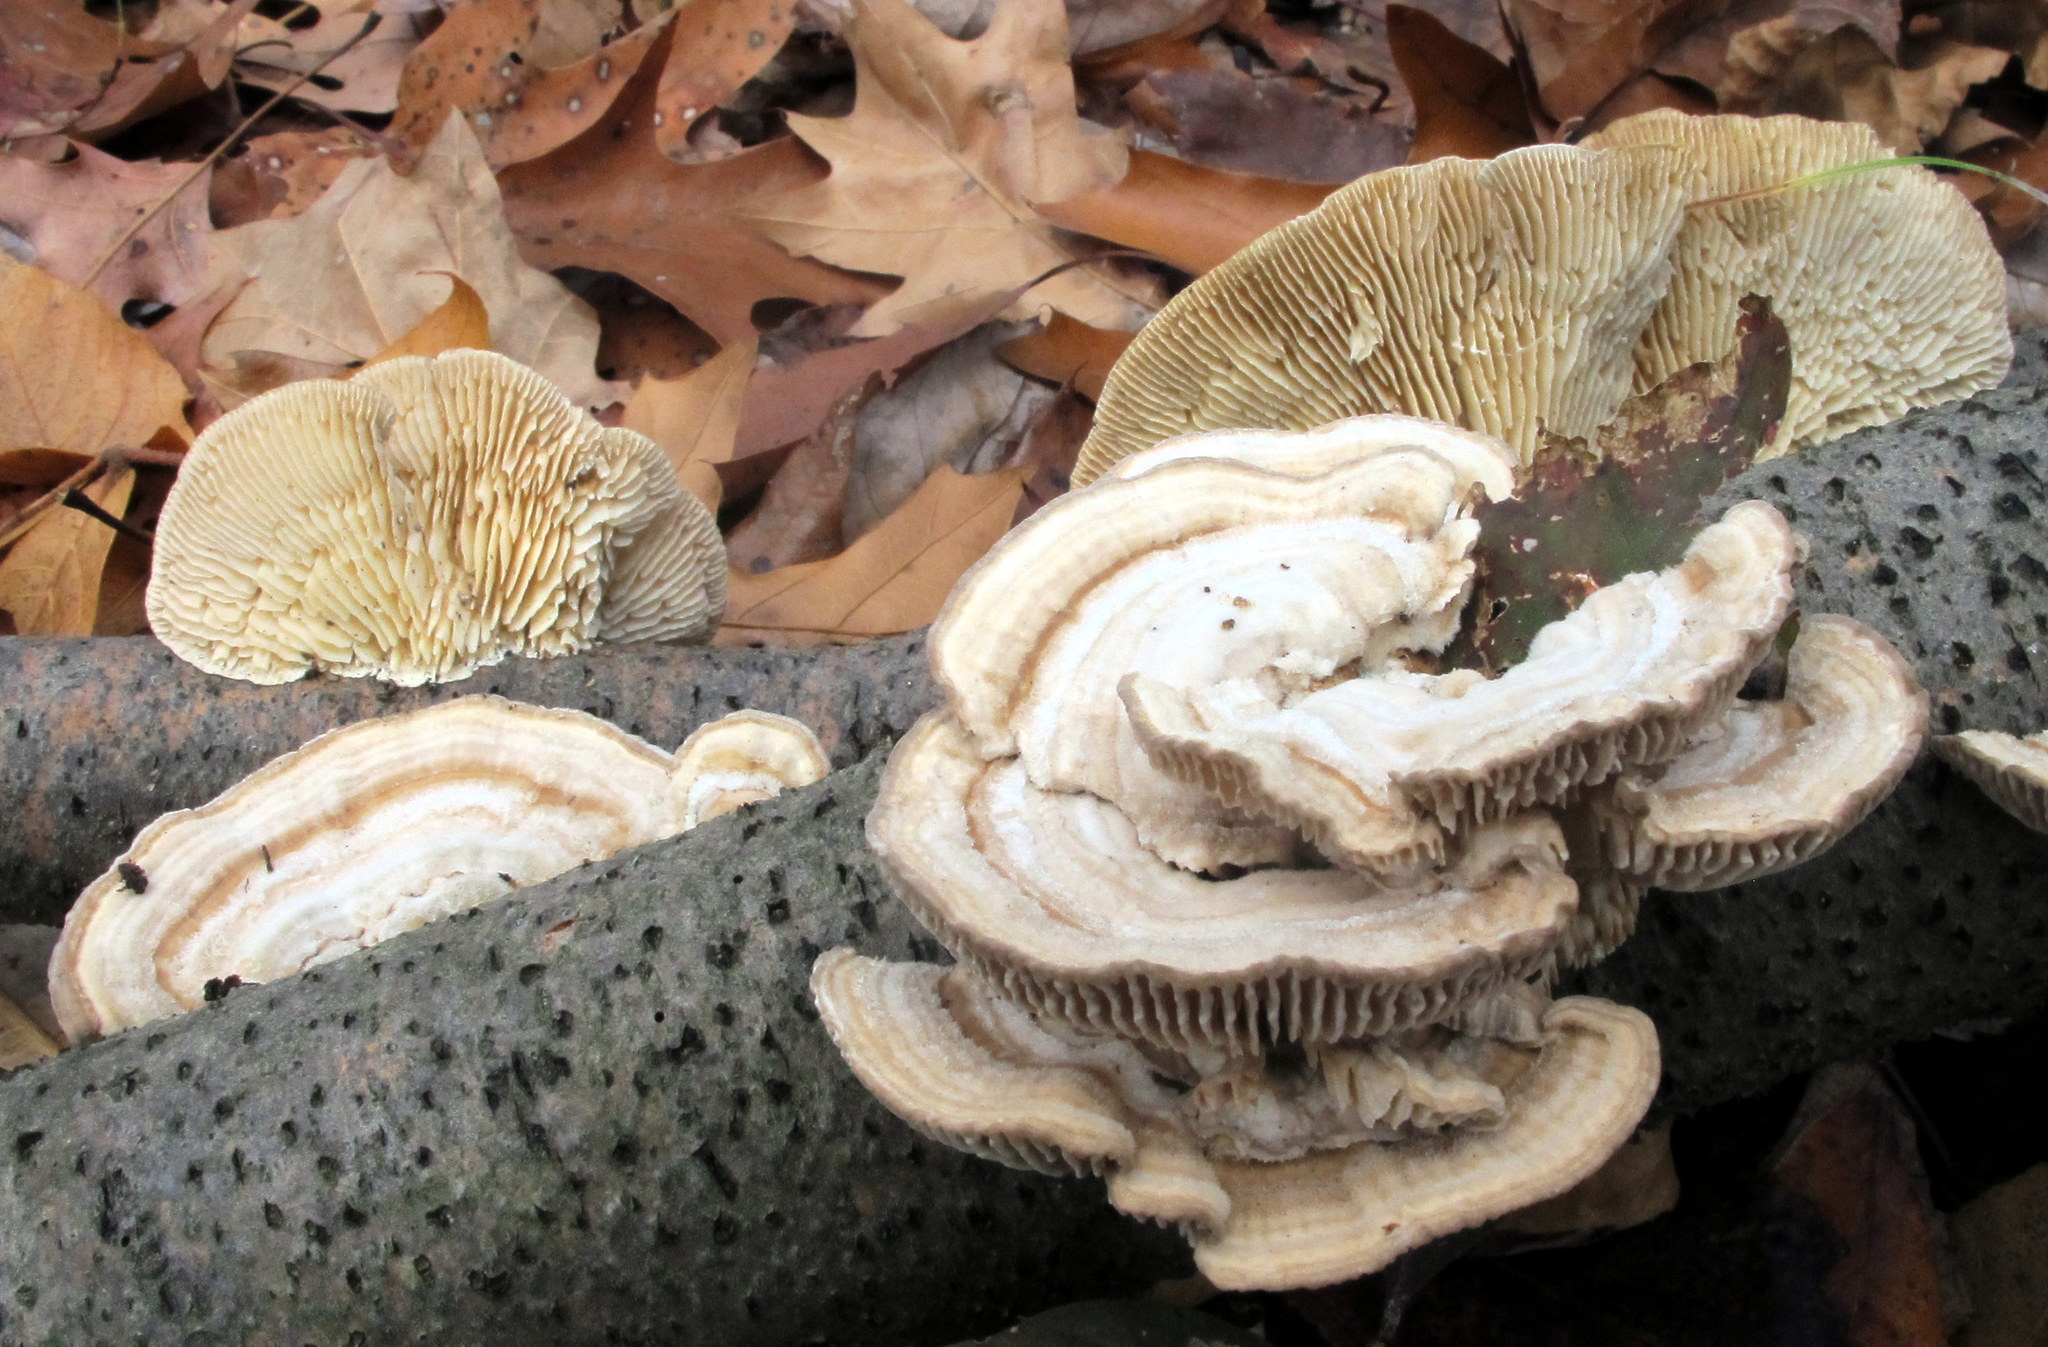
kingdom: Fungi
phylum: Basidiomycota
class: Agaricomycetes
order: Polyporales
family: Polyporaceae
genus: Lenzites
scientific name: Lenzites betulinus
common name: Birch mazegill
